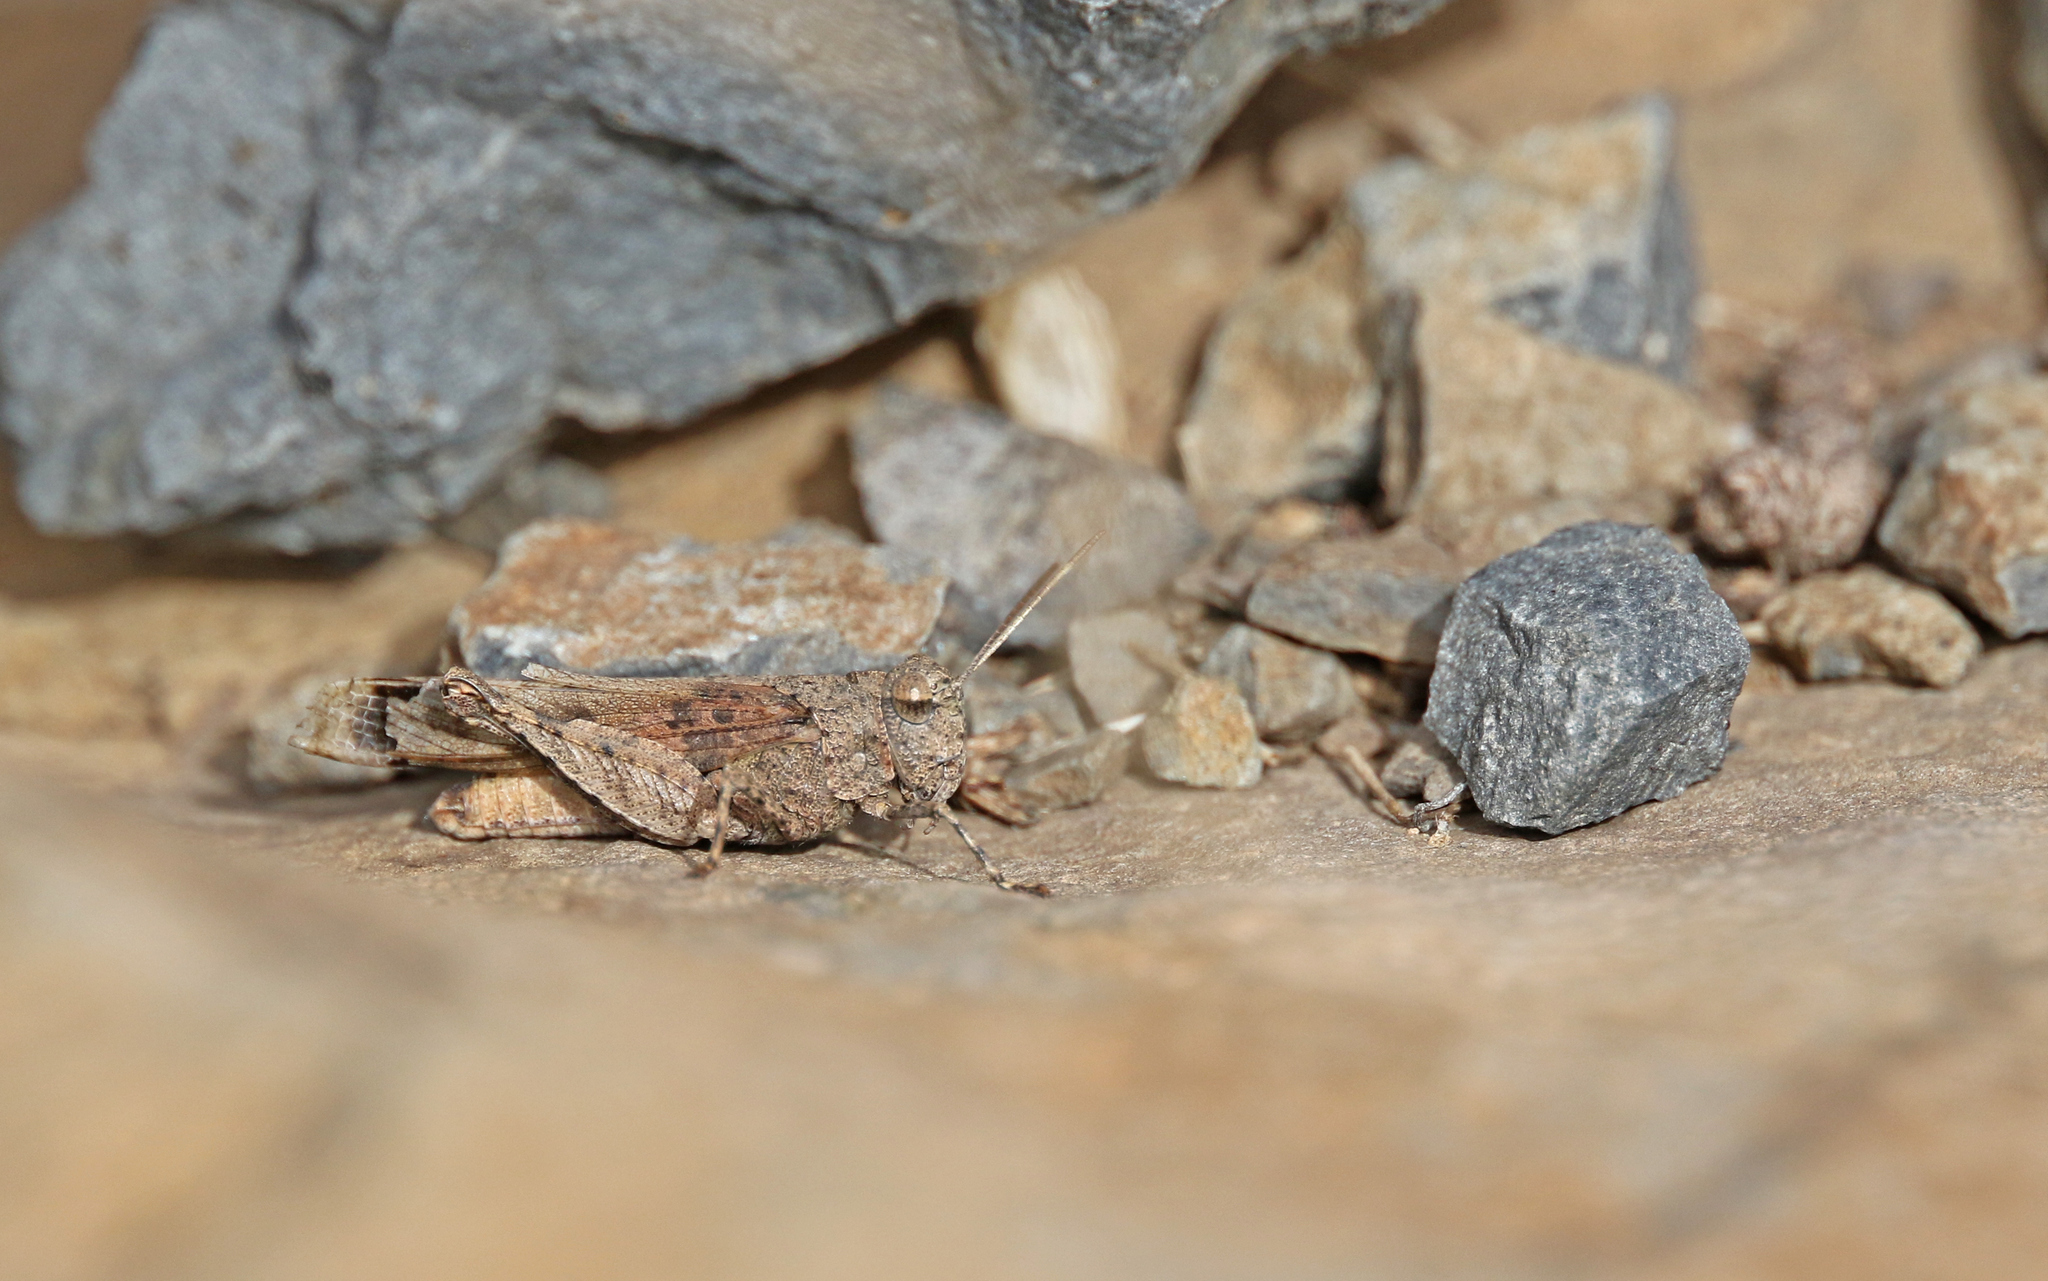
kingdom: Animalia
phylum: Arthropoda
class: Insecta
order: Orthoptera
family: Acrididae
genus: Oedipoda
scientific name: Oedipoda canariensis
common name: Canarian band-winged grasshopper
